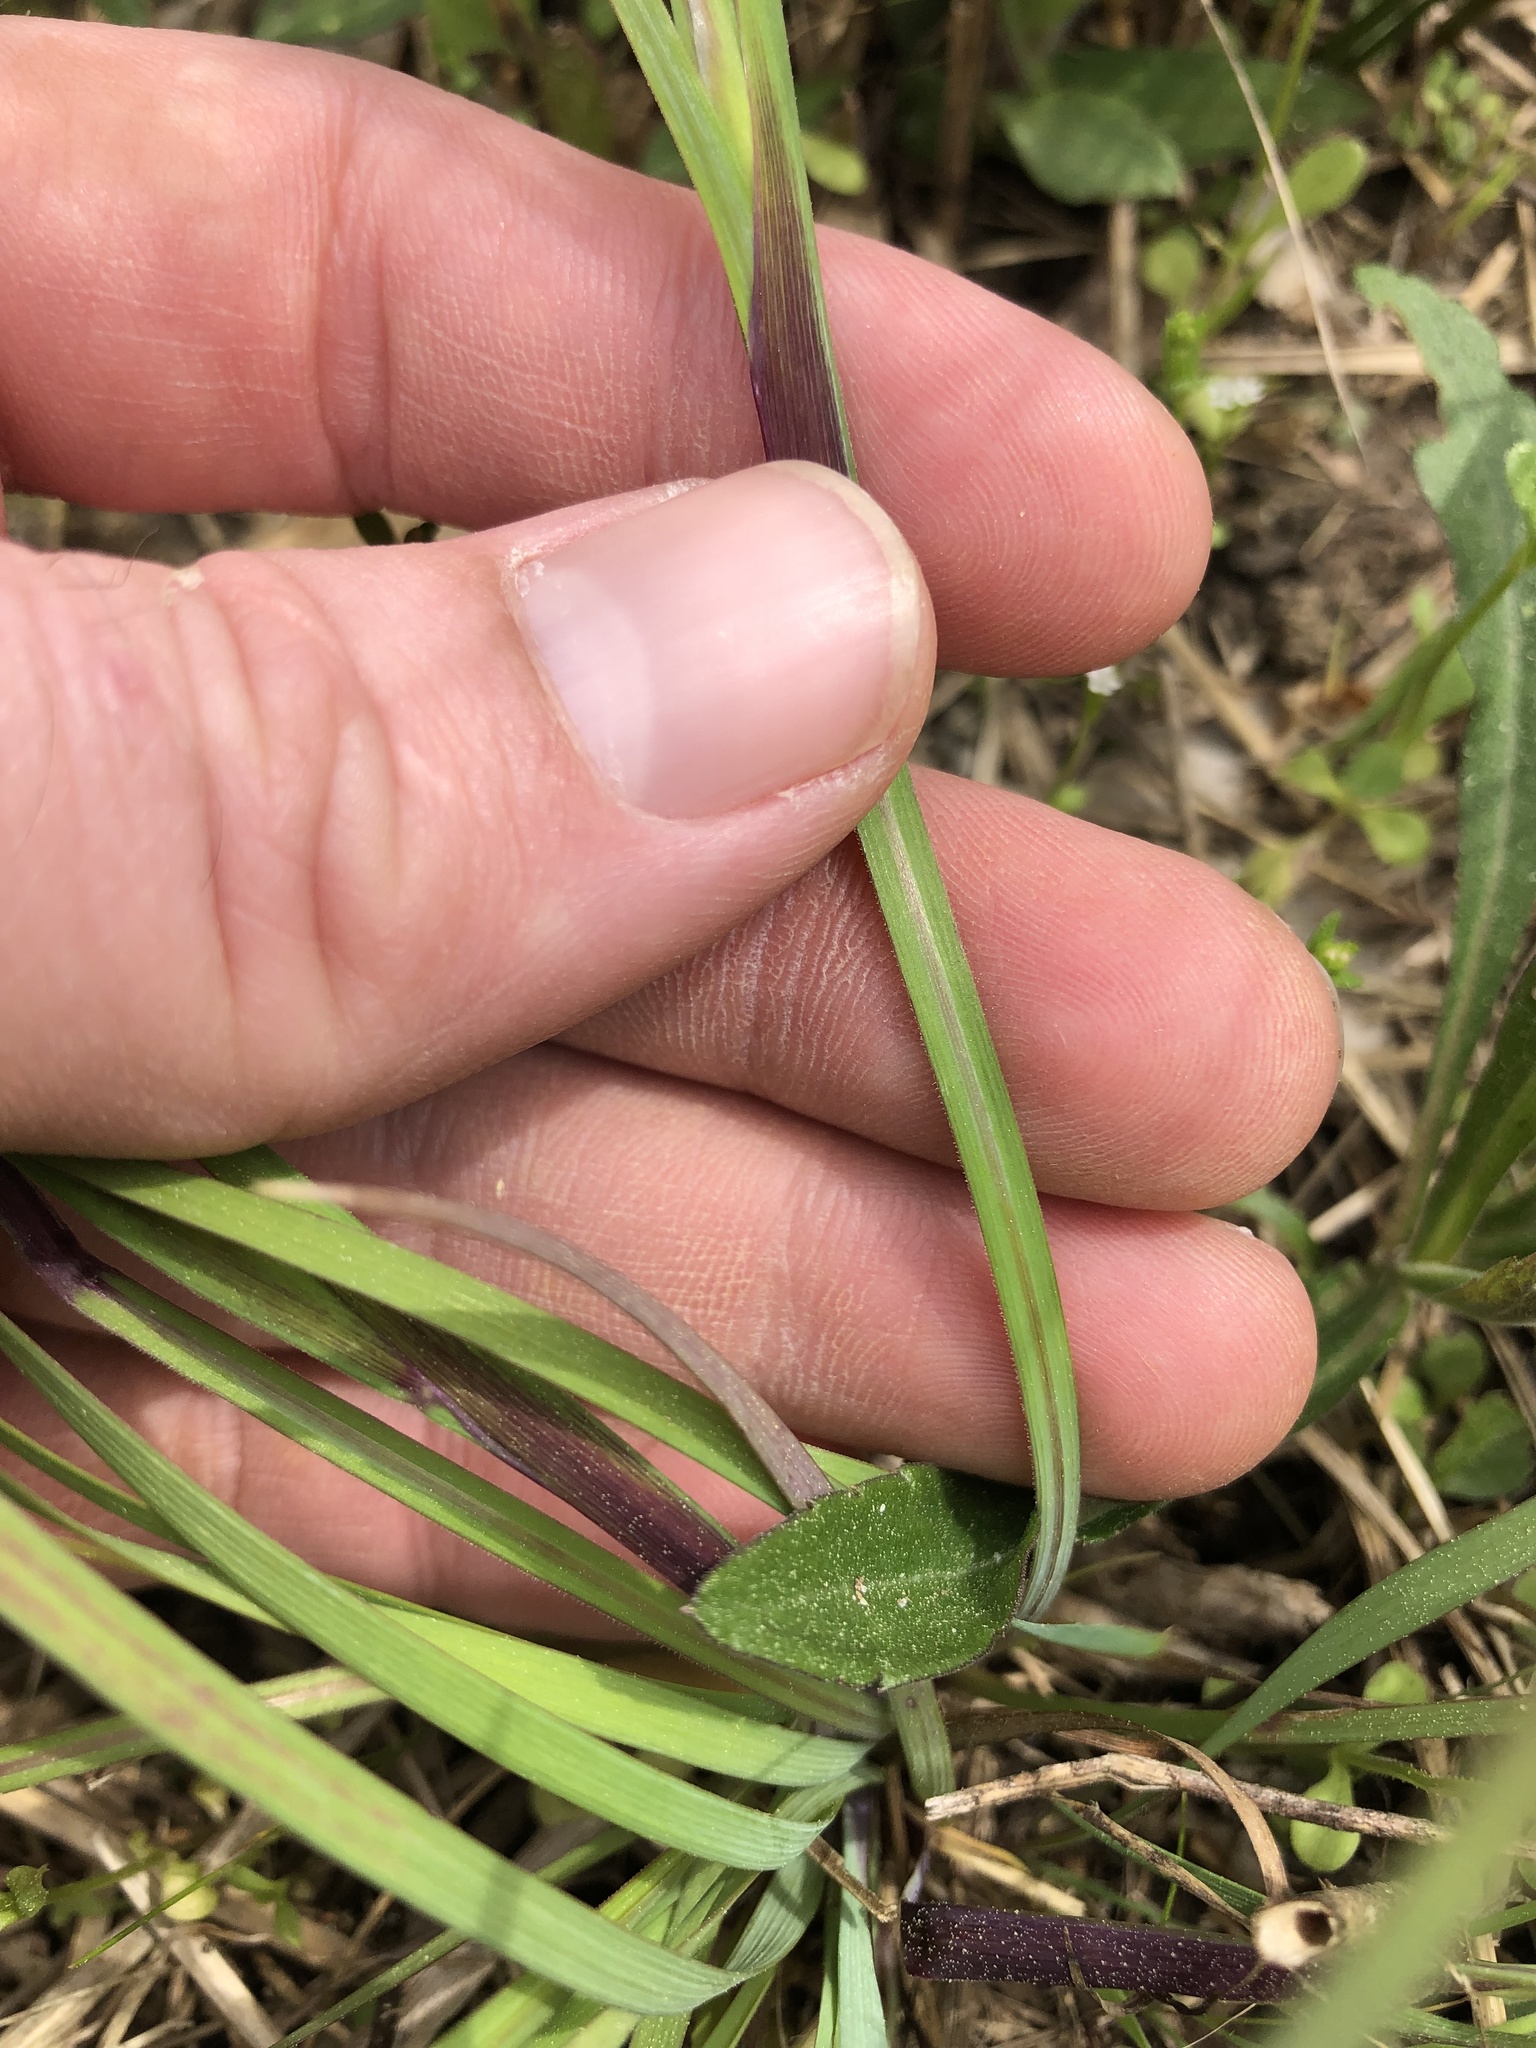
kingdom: Plantae
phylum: Tracheophyta
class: Liliopsida
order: Asparagales
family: Iridaceae
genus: Sisyrinchium
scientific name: Sisyrinchium pruinosum
